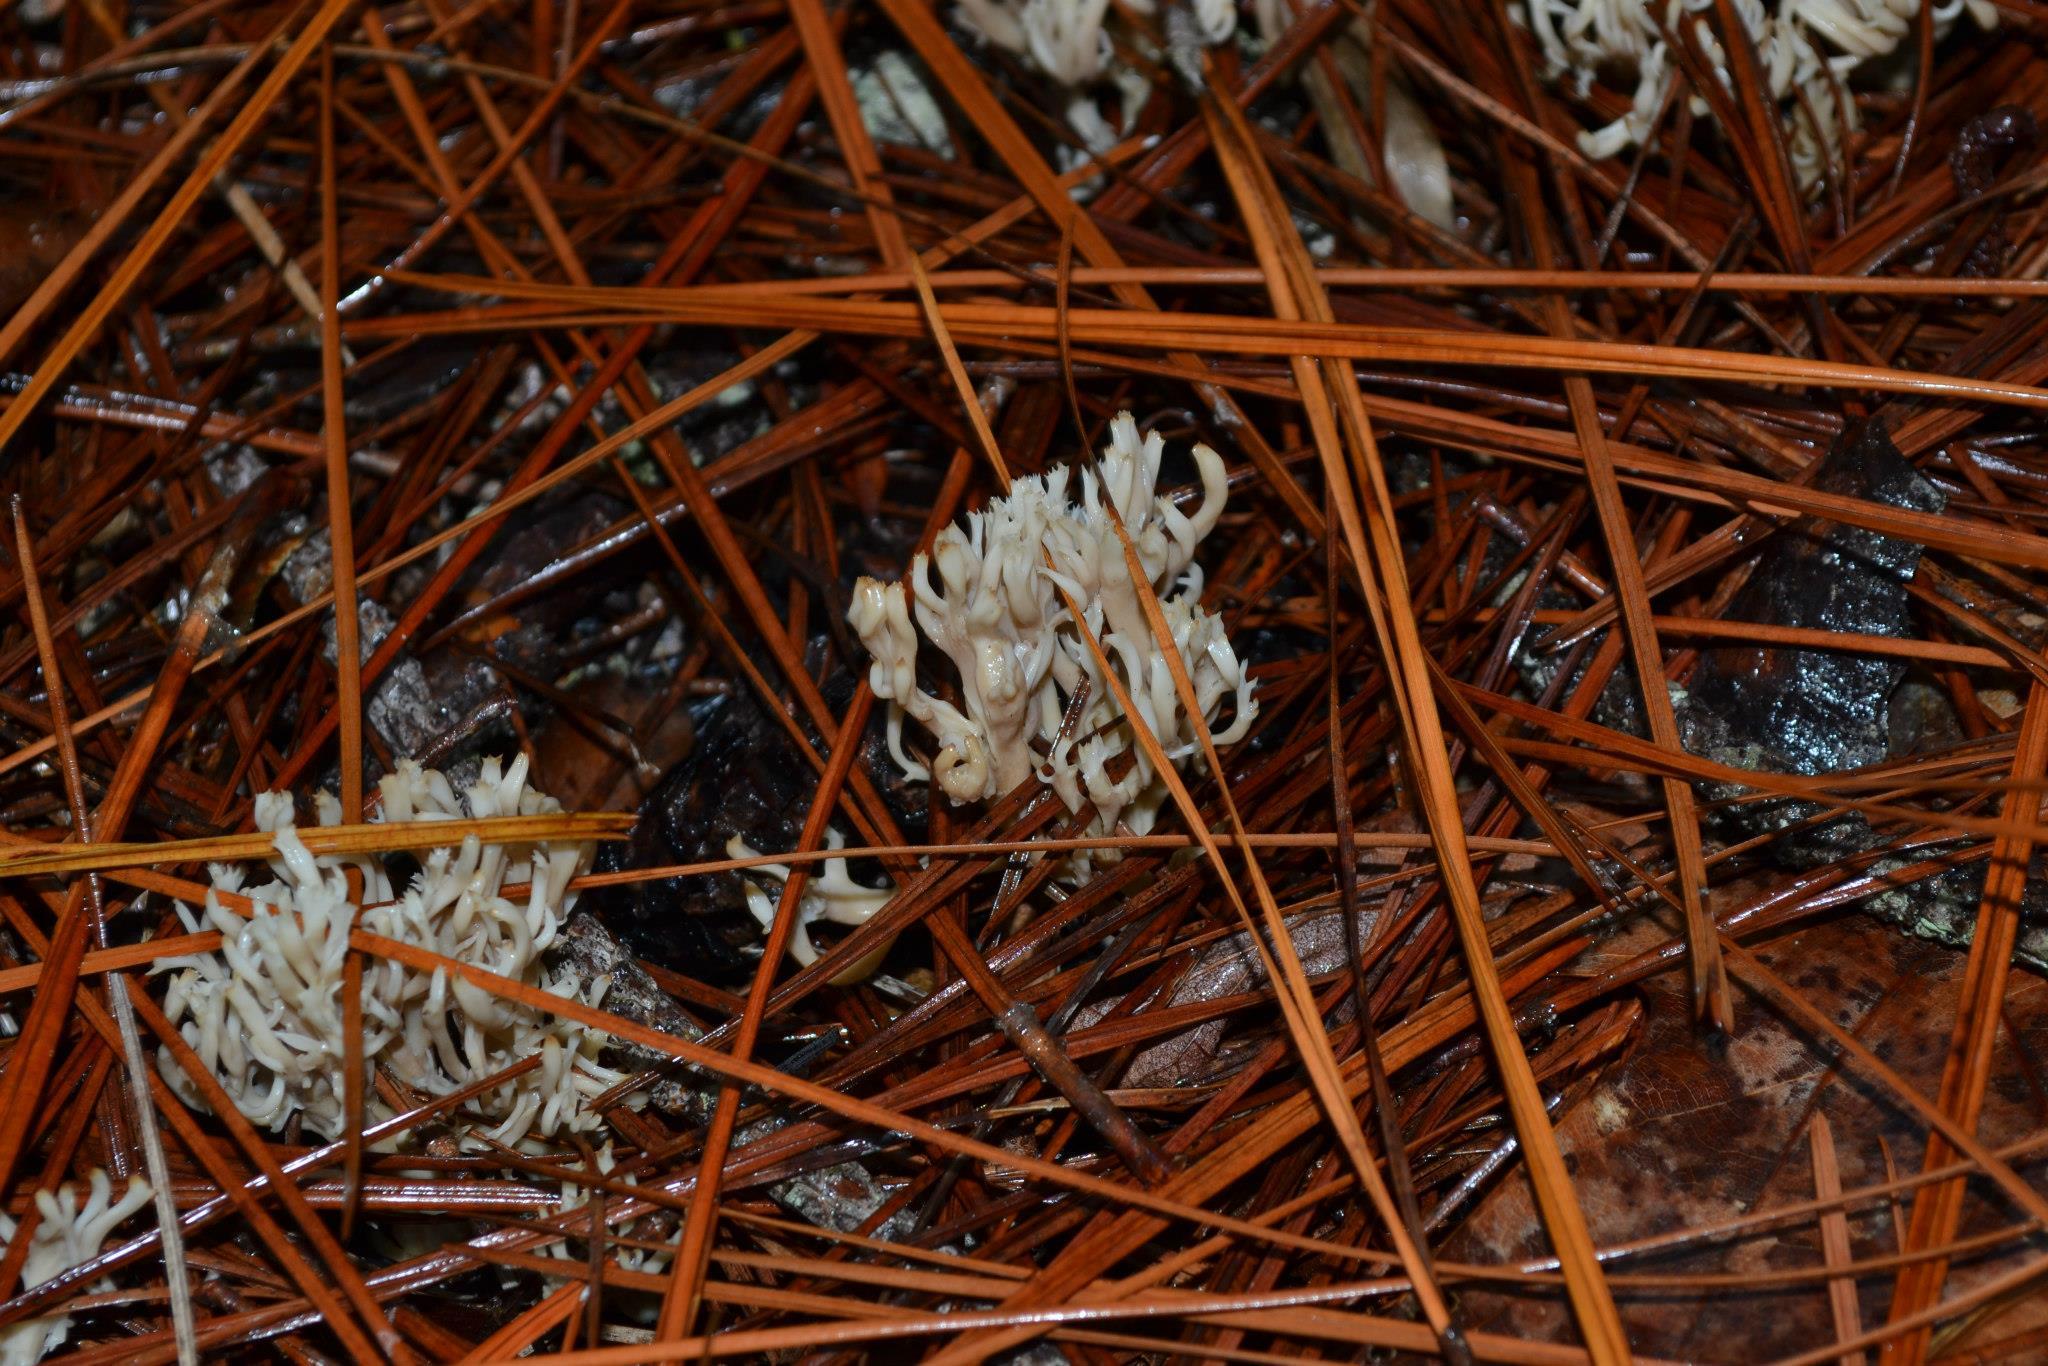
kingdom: Fungi
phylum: Basidiomycota
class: Agaricomycetes
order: Cantharellales
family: Hydnaceae
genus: Clavulina
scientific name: Clavulina coralloides
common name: Crested coral
